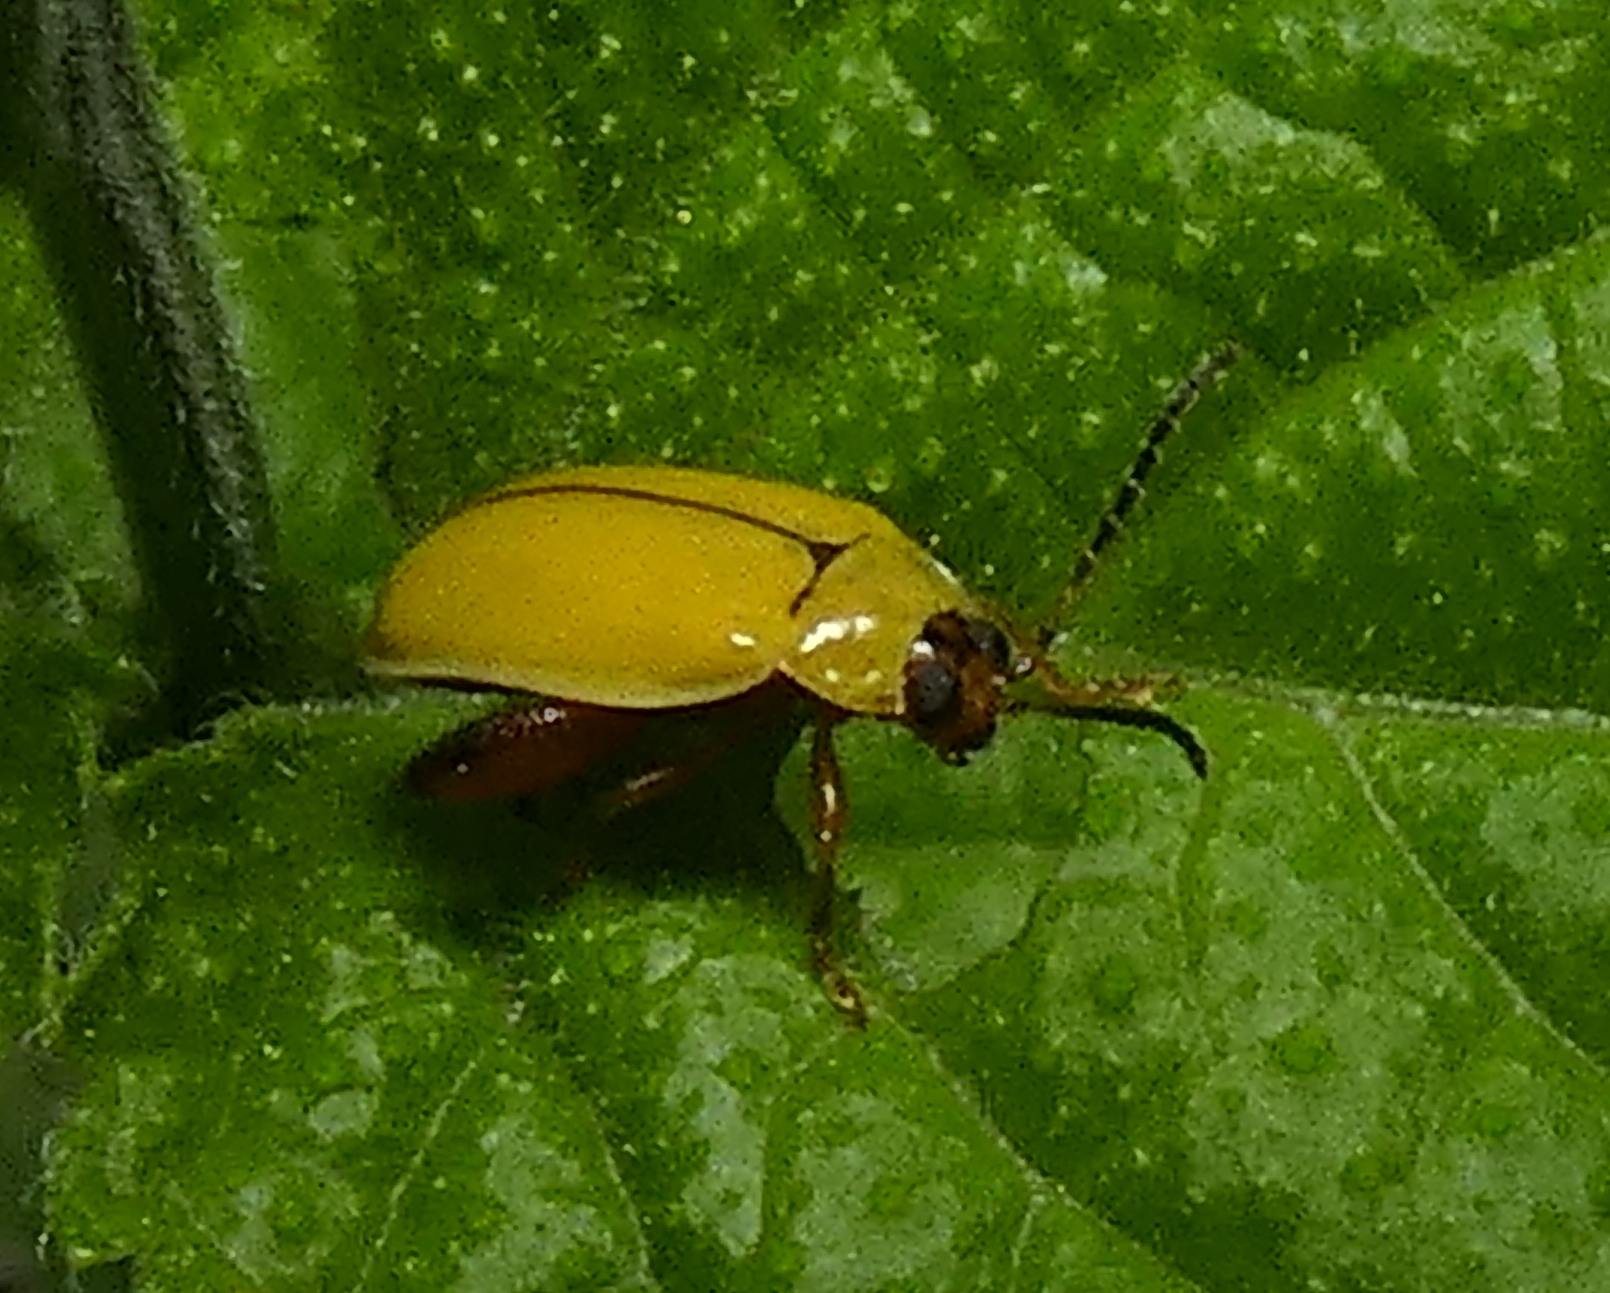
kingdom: Animalia
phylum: Arthropoda
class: Insecta
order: Coleoptera
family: Chrysomelidae
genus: Alagoasa
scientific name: Alagoasa
